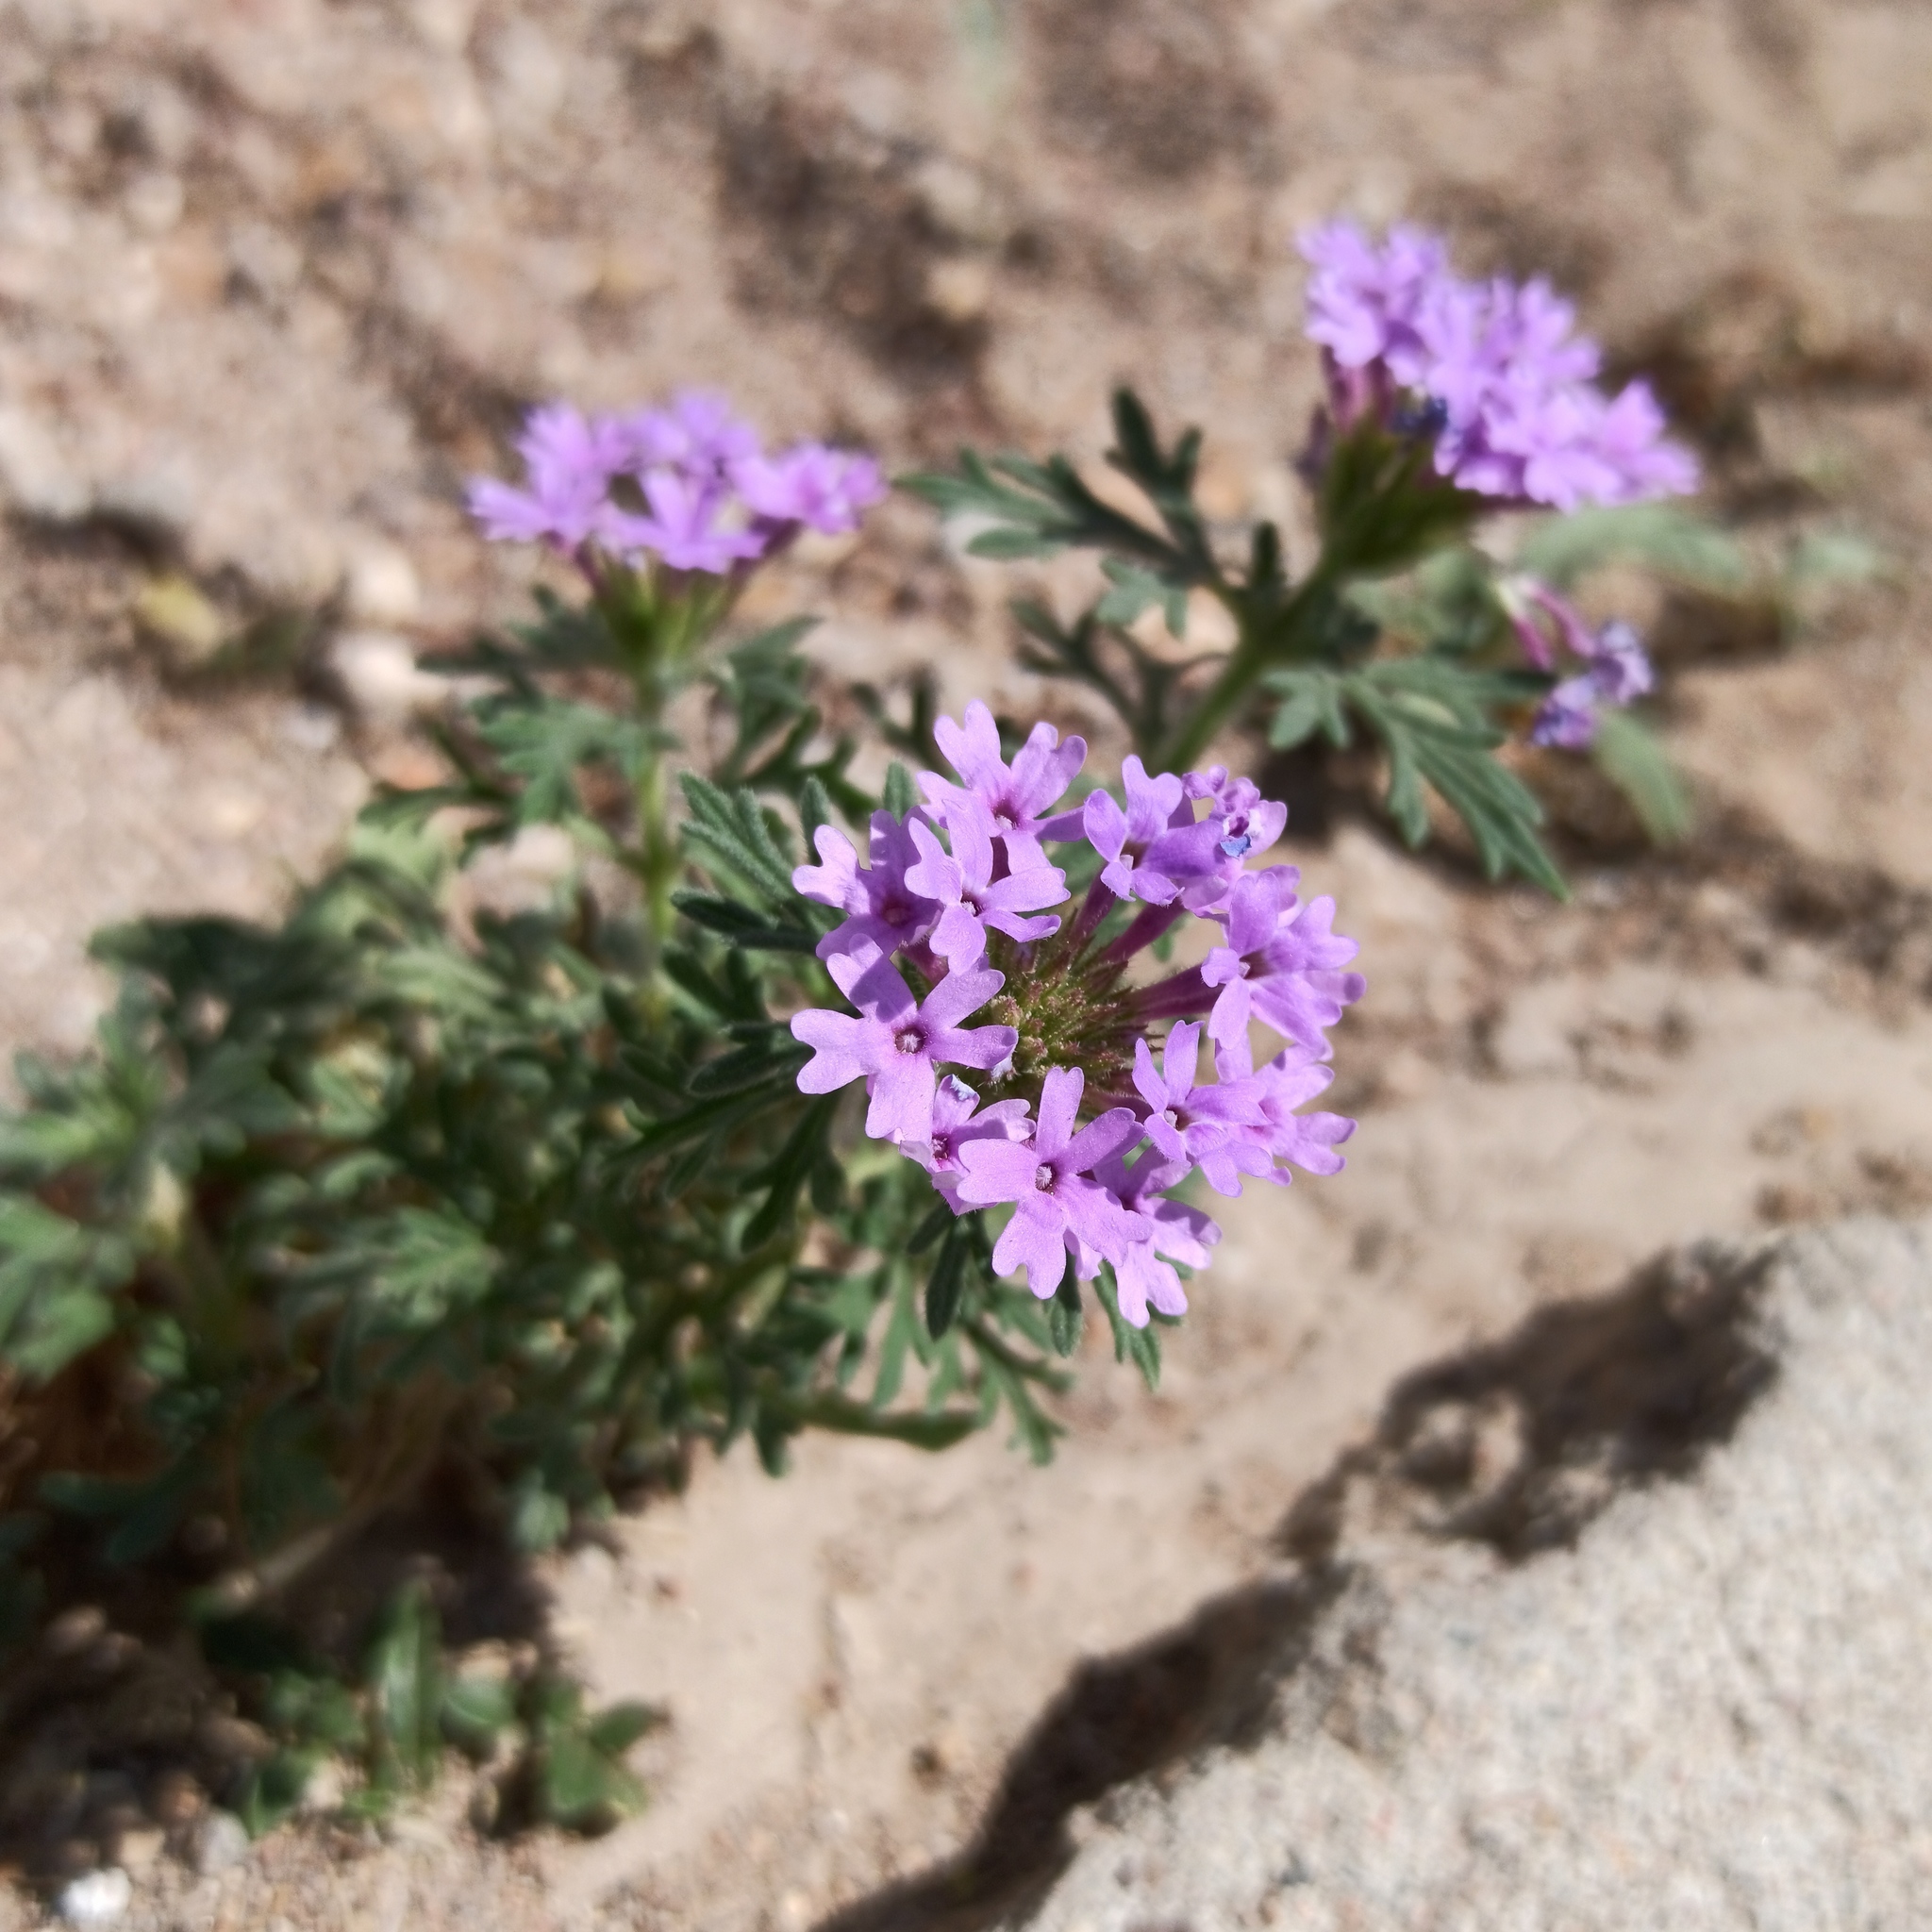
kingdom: Plantae
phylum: Tracheophyta
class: Magnoliopsida
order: Lamiales
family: Verbenaceae
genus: Verbena
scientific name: Verbena bipinnatifida
